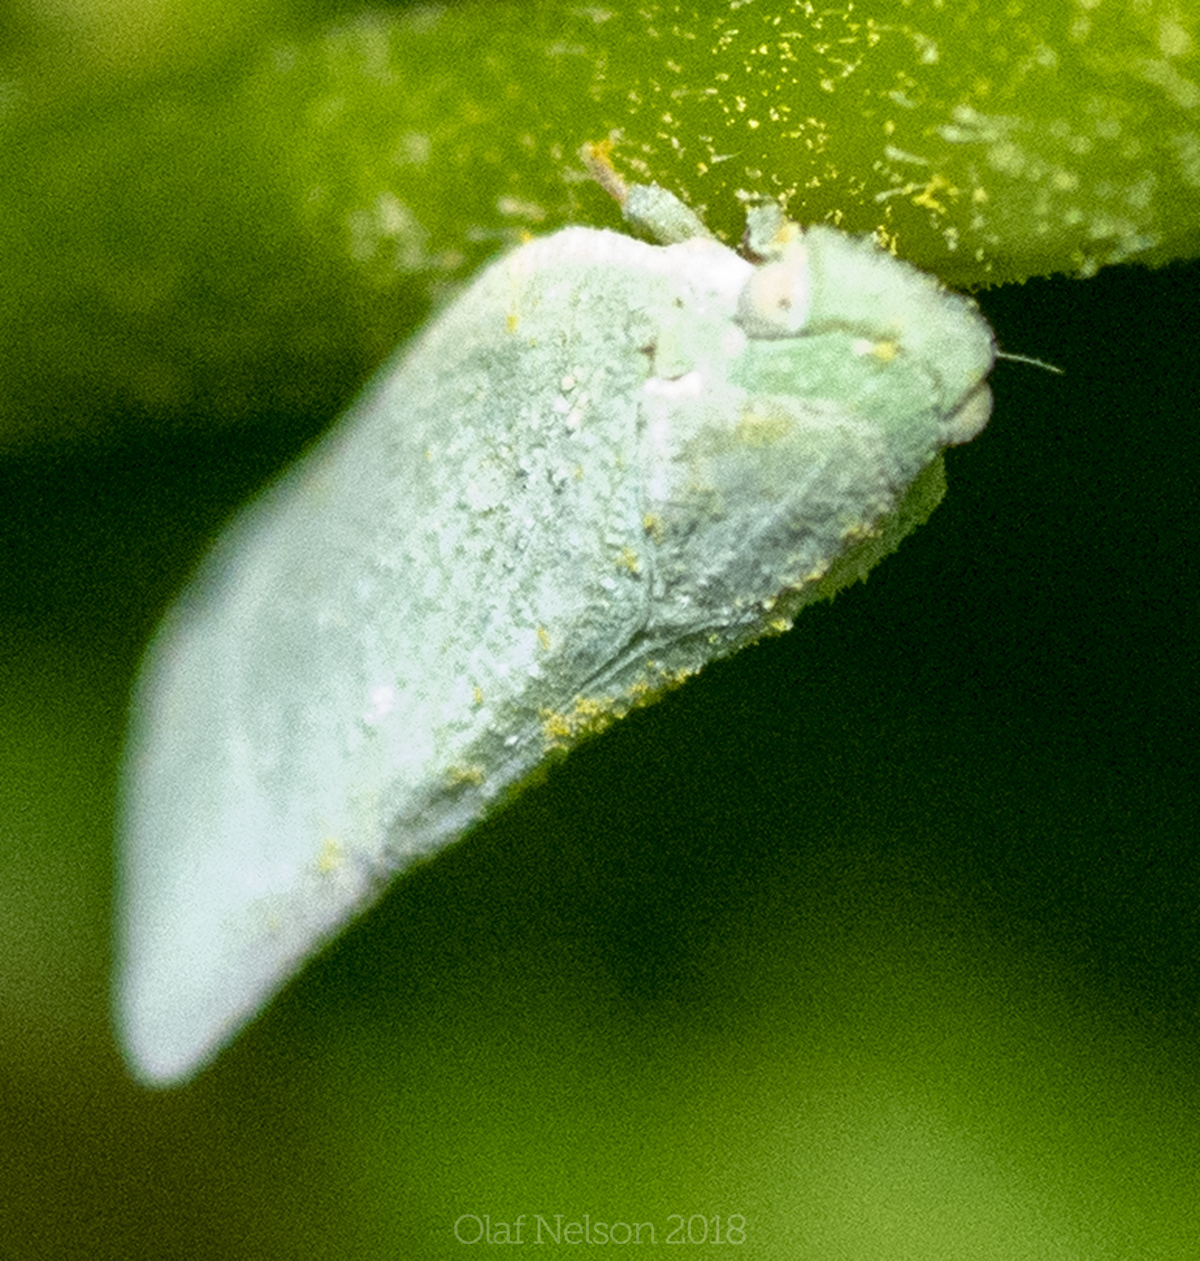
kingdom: Animalia
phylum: Arthropoda
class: Insecta
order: Hemiptera
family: Flatidae
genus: Flatormenis
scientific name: Flatormenis proxima
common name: Northern flatid planthopper
